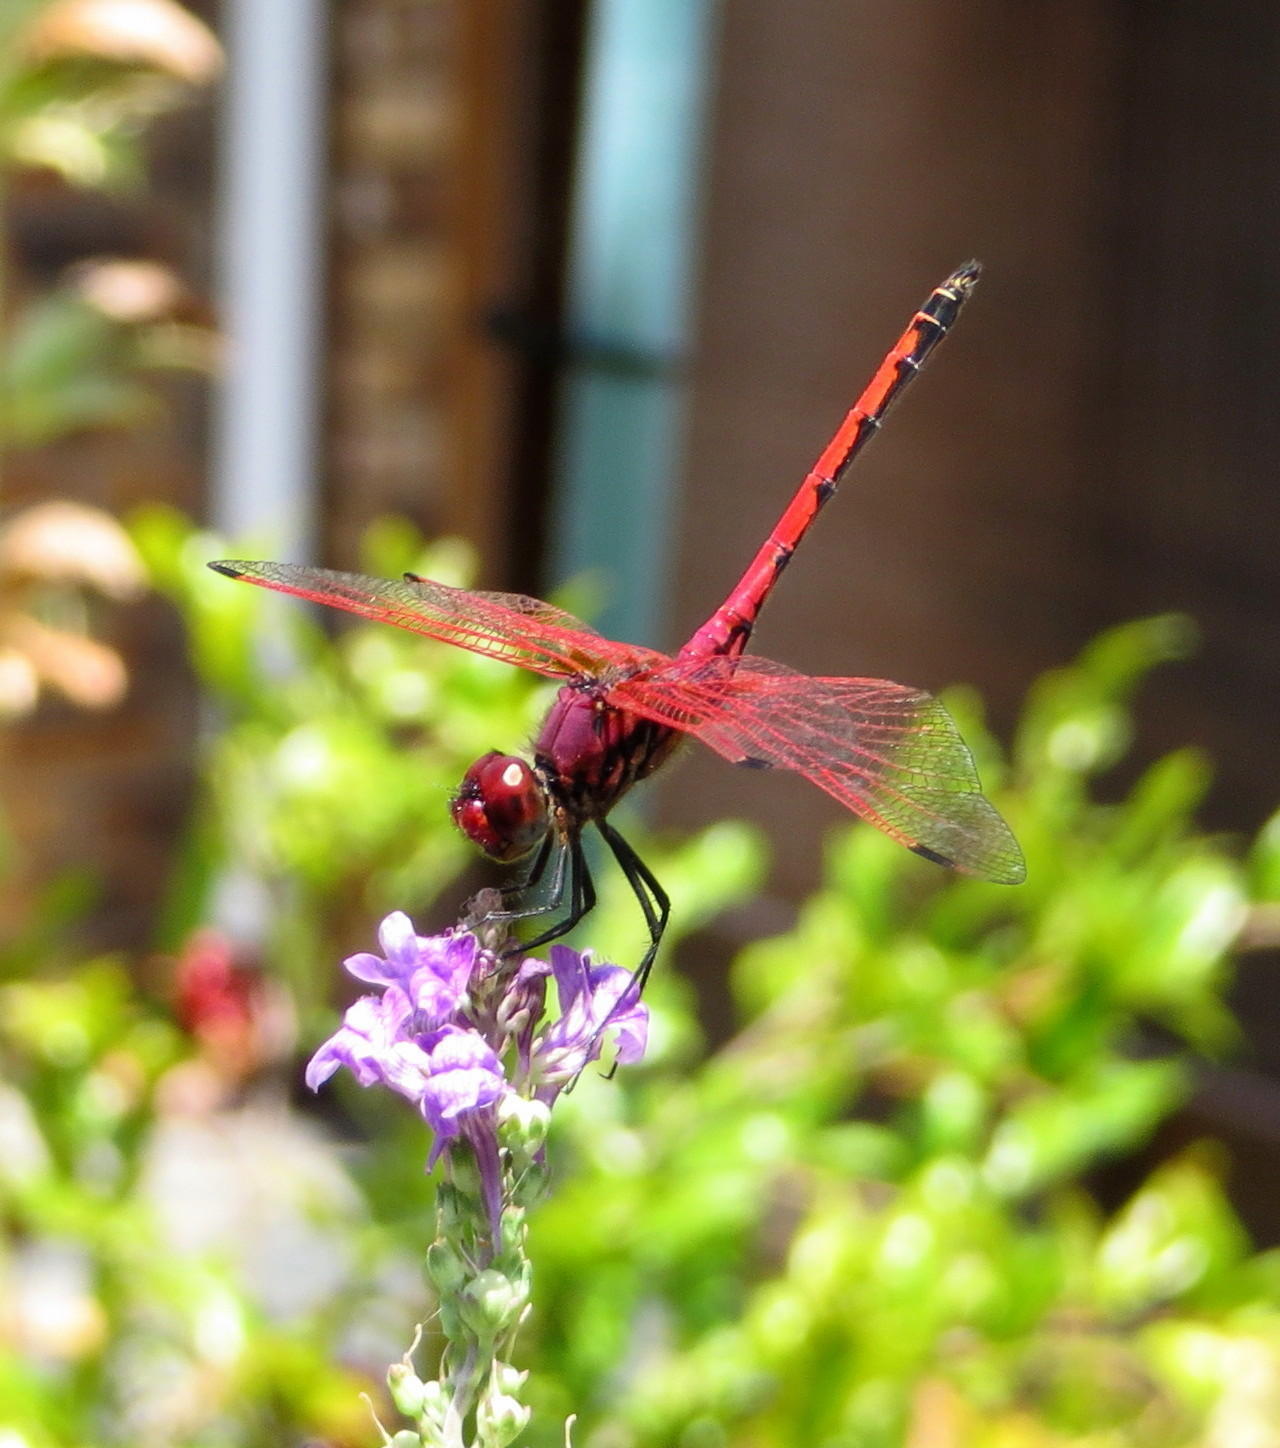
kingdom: Animalia
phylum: Arthropoda
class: Insecta
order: Odonata
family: Libellulidae
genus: Trithemis
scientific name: Trithemis arteriosa
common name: Red-veined dropwing
